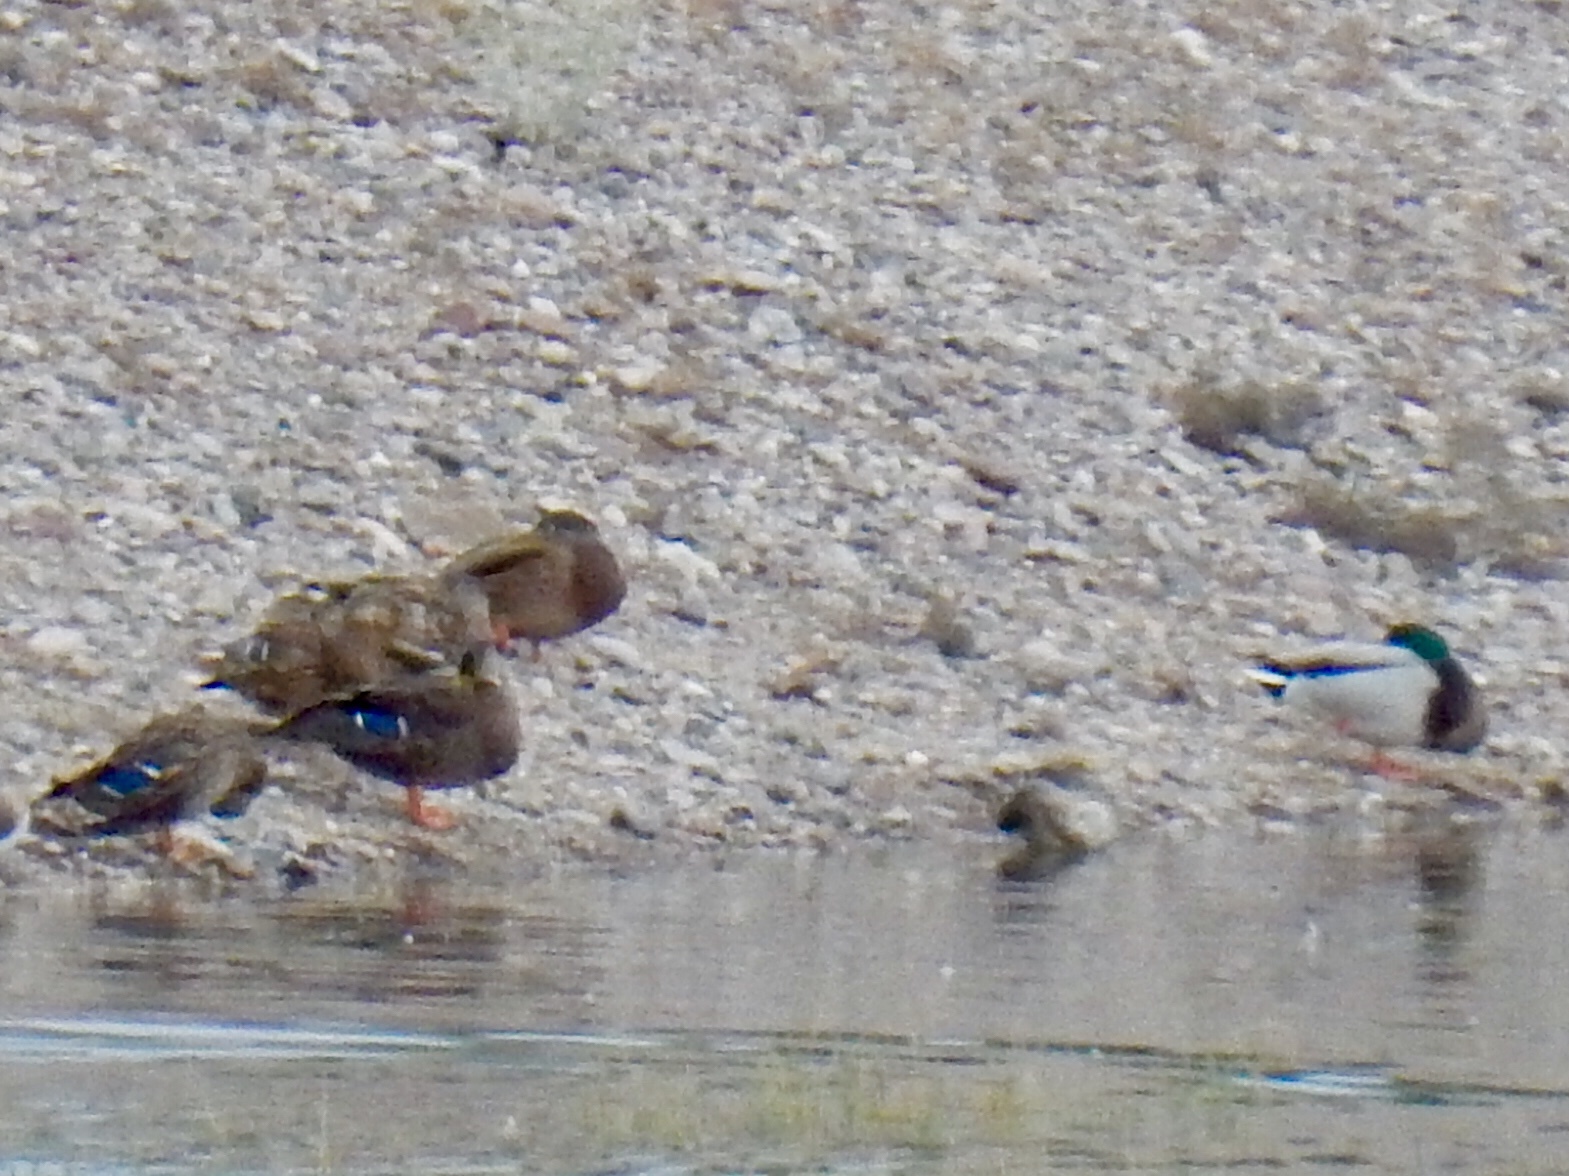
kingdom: Animalia
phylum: Chordata
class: Aves
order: Anseriformes
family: Anatidae
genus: Anas
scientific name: Anas platyrhynchos
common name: Mallard
